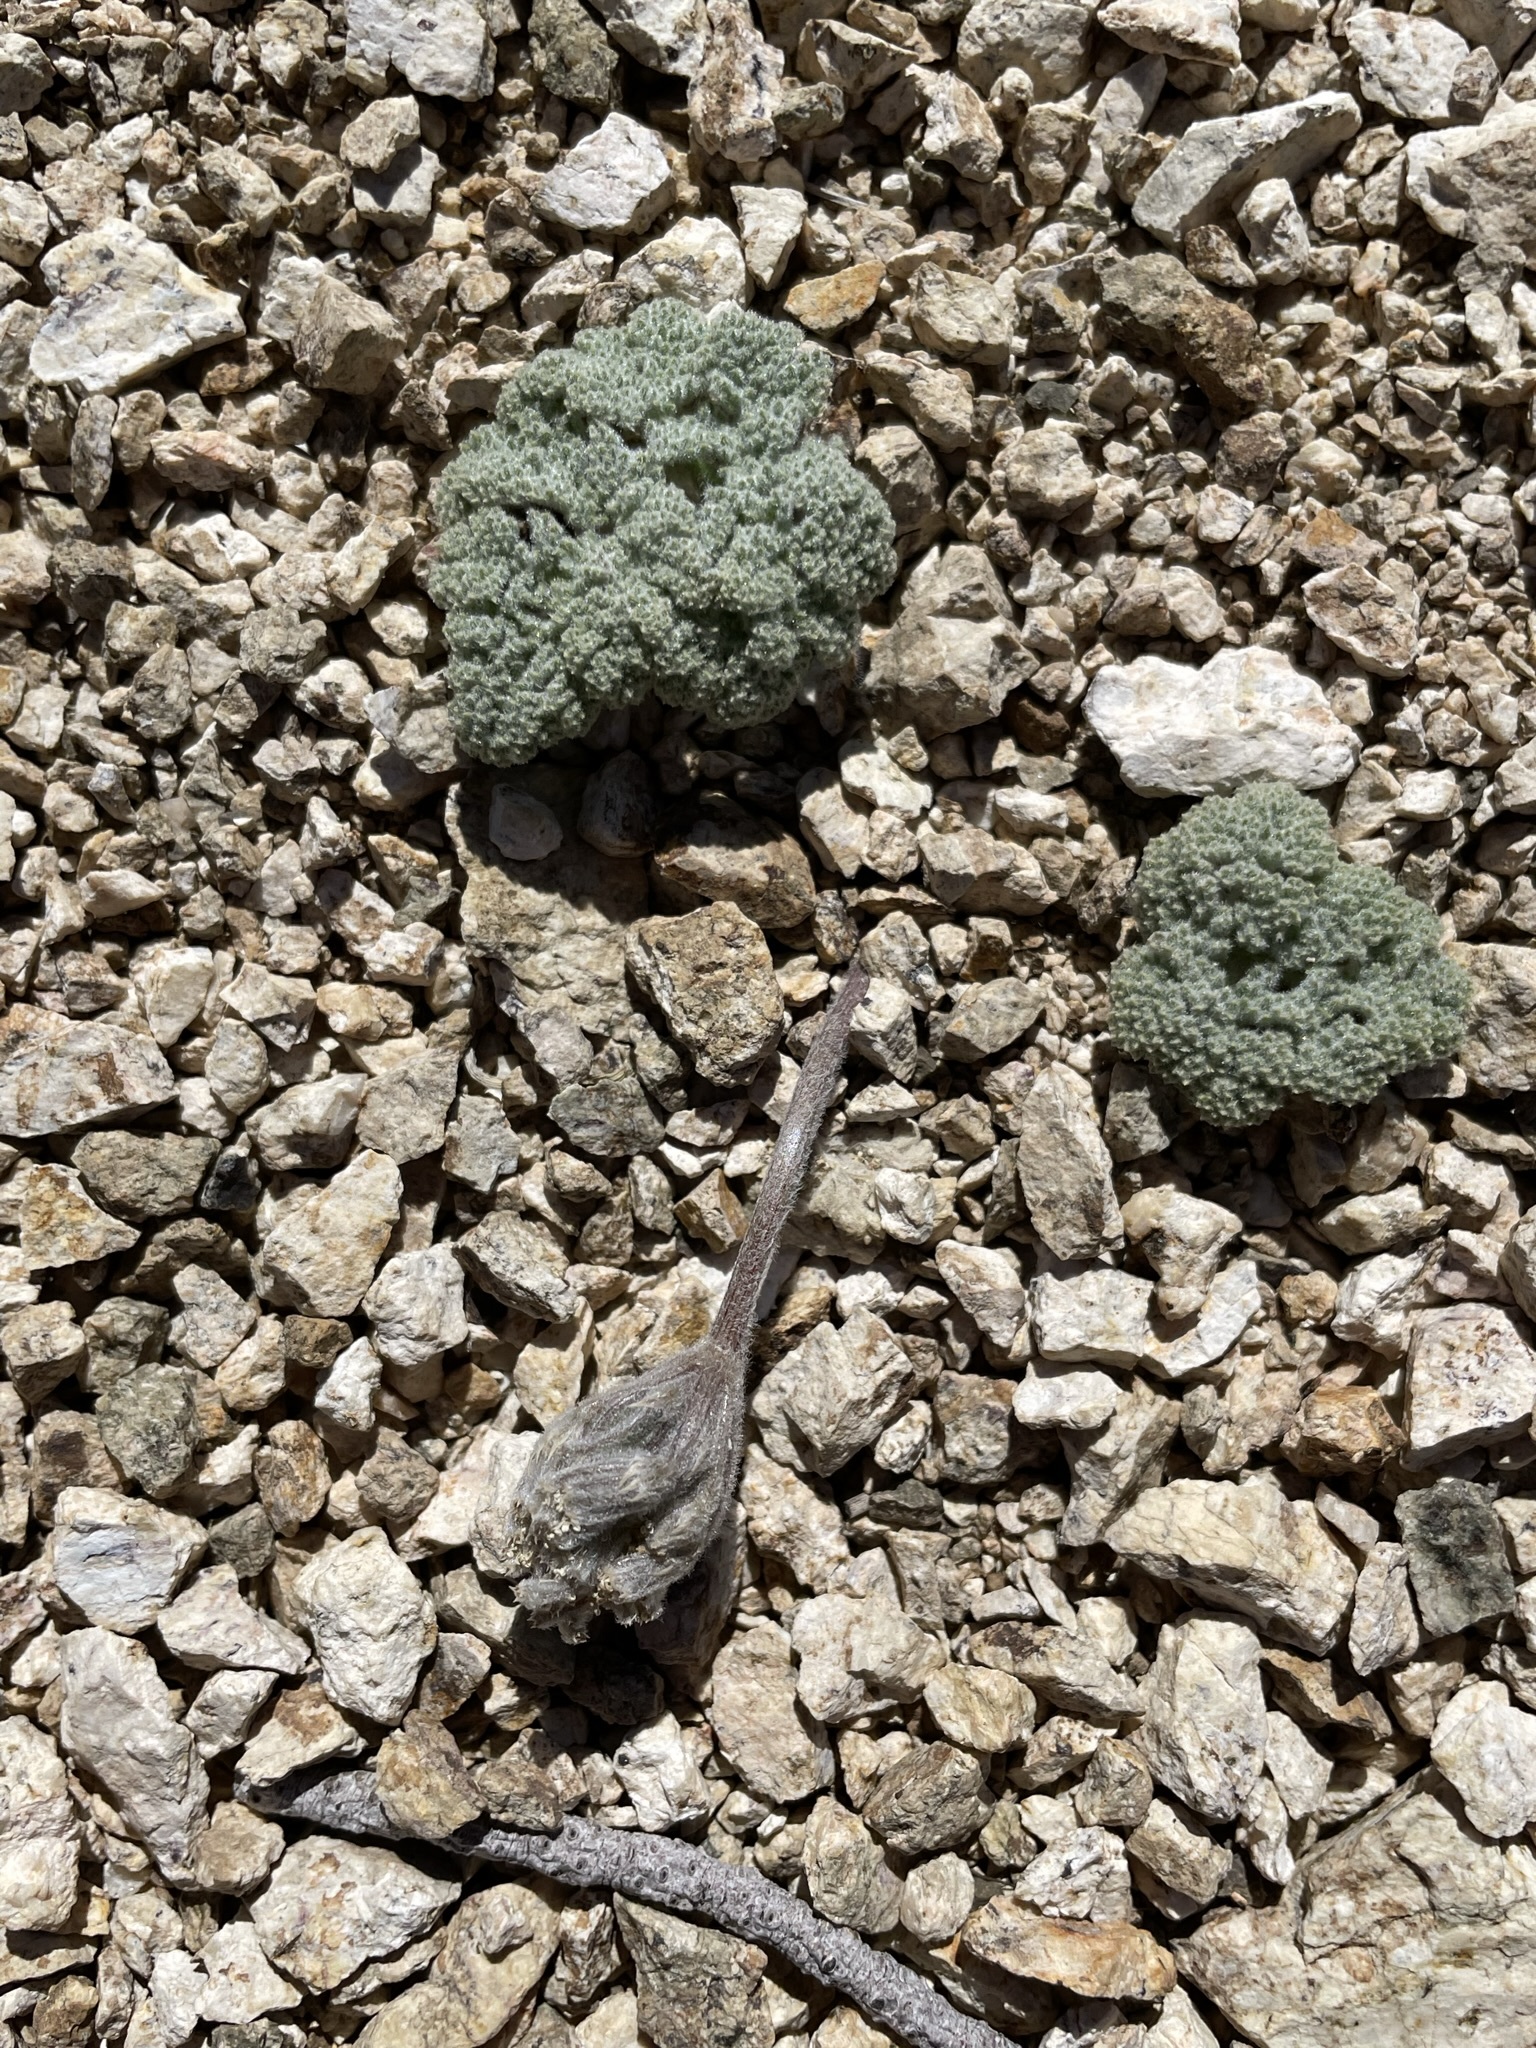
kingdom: Plantae
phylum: Tracheophyta
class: Magnoliopsida
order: Apiales
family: Apiaceae
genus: Oreonana
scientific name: Oreonana vestita
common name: Woolly mountain-parsley
